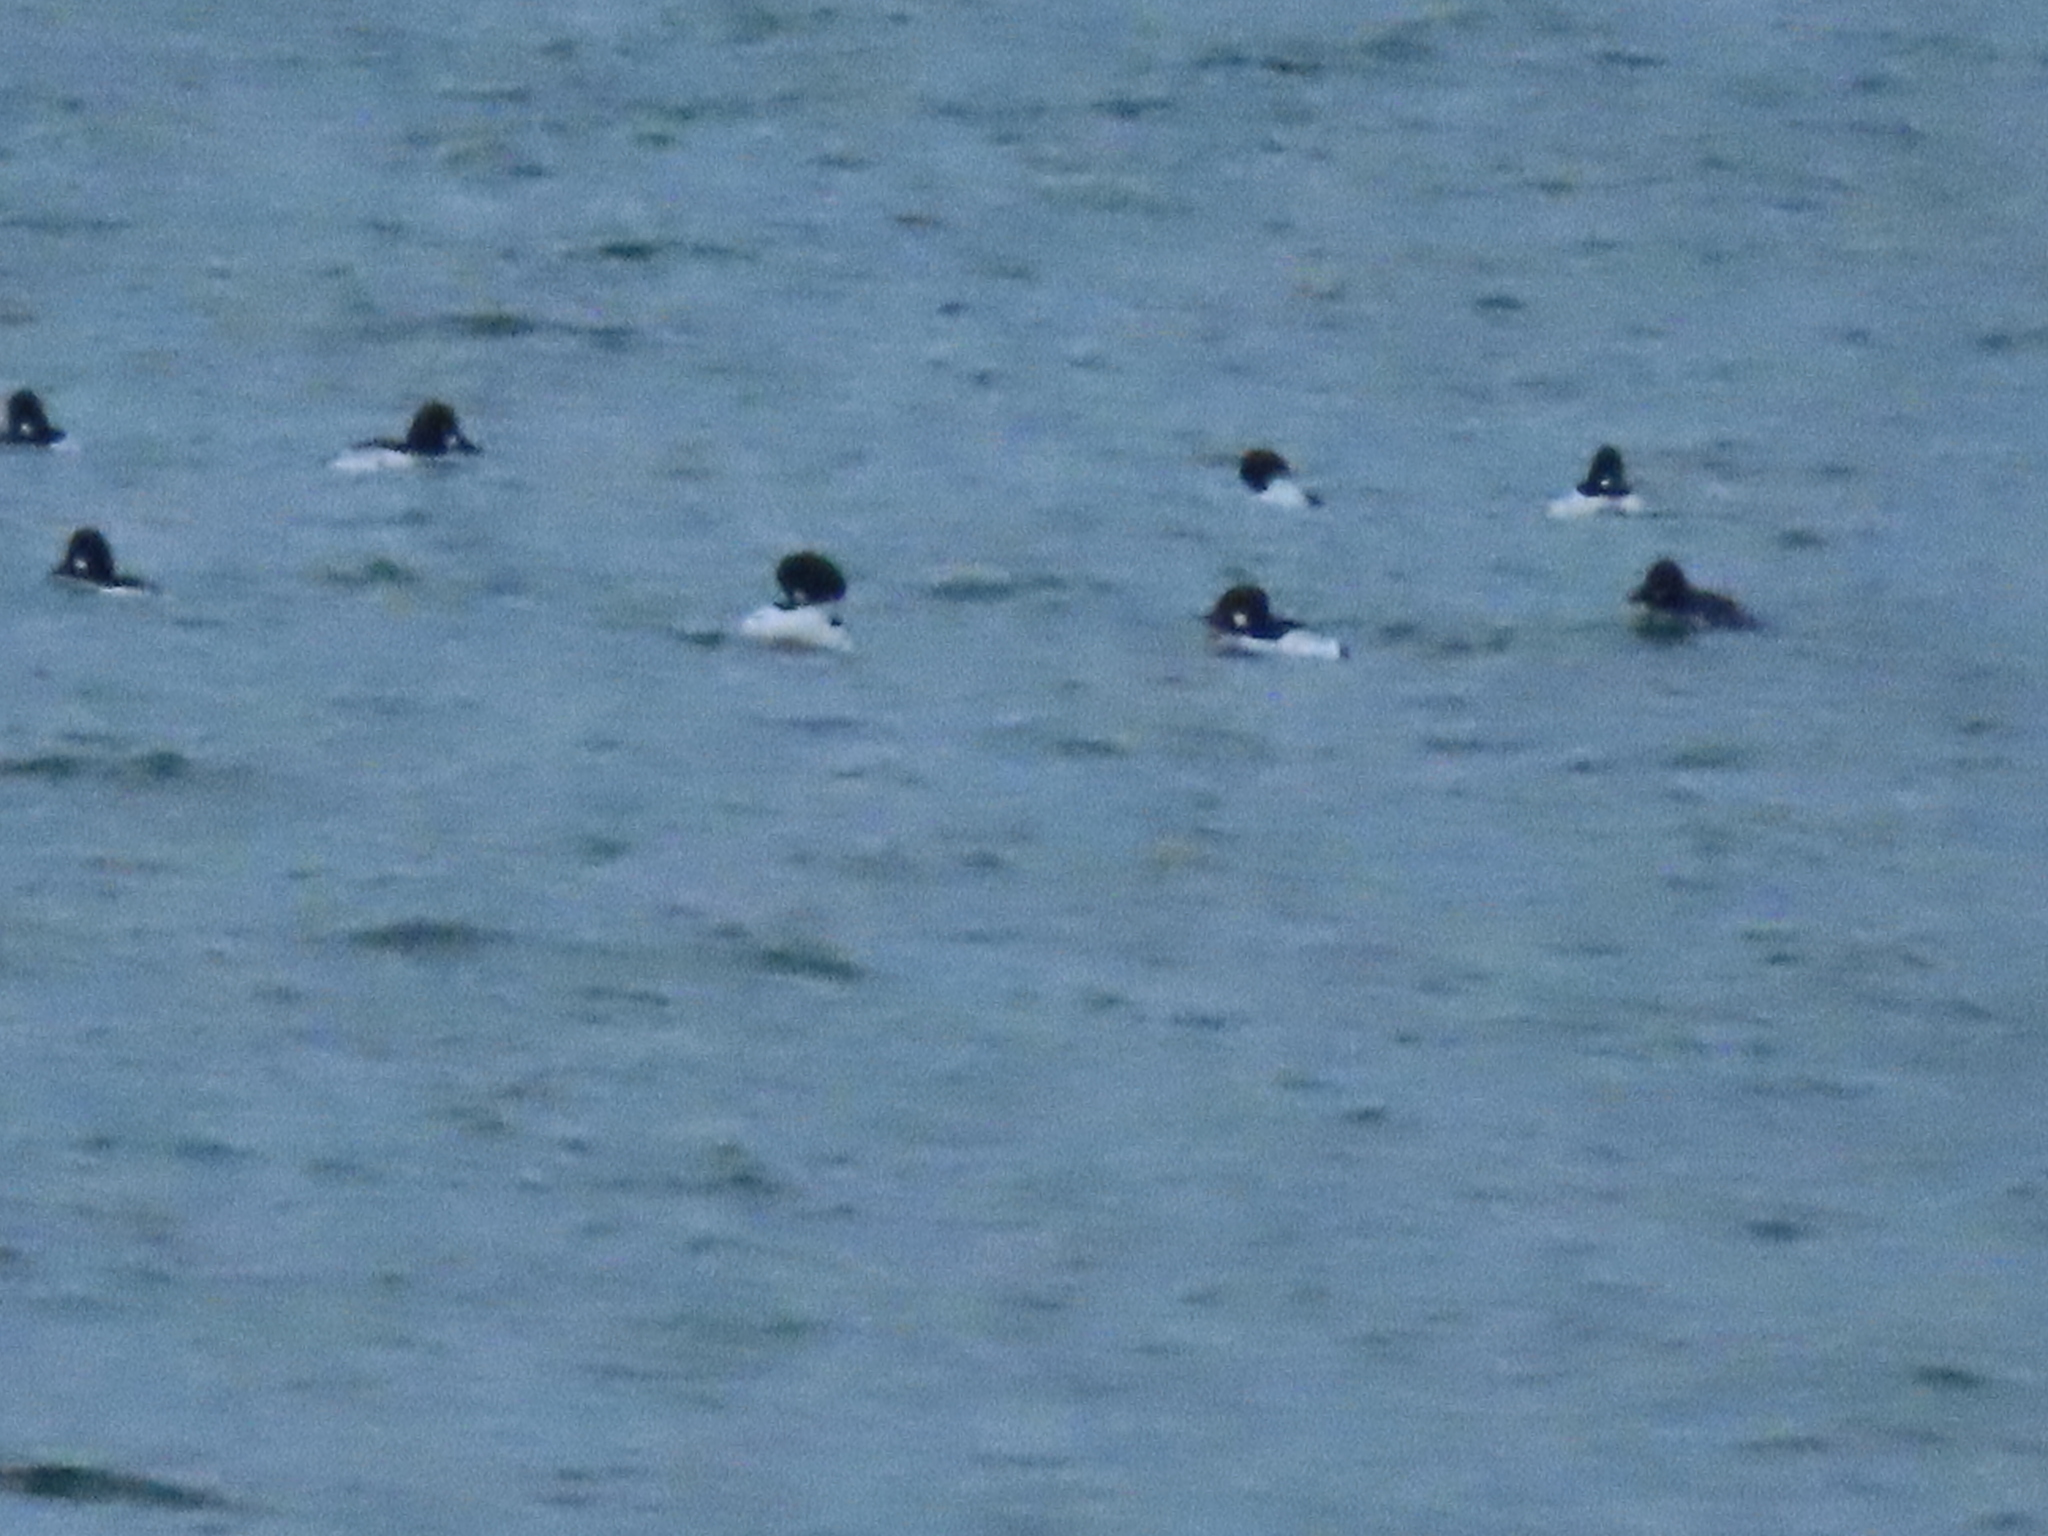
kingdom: Animalia
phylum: Chordata
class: Aves
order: Anseriformes
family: Anatidae
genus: Bucephala
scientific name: Bucephala clangula
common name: Common goldeneye
